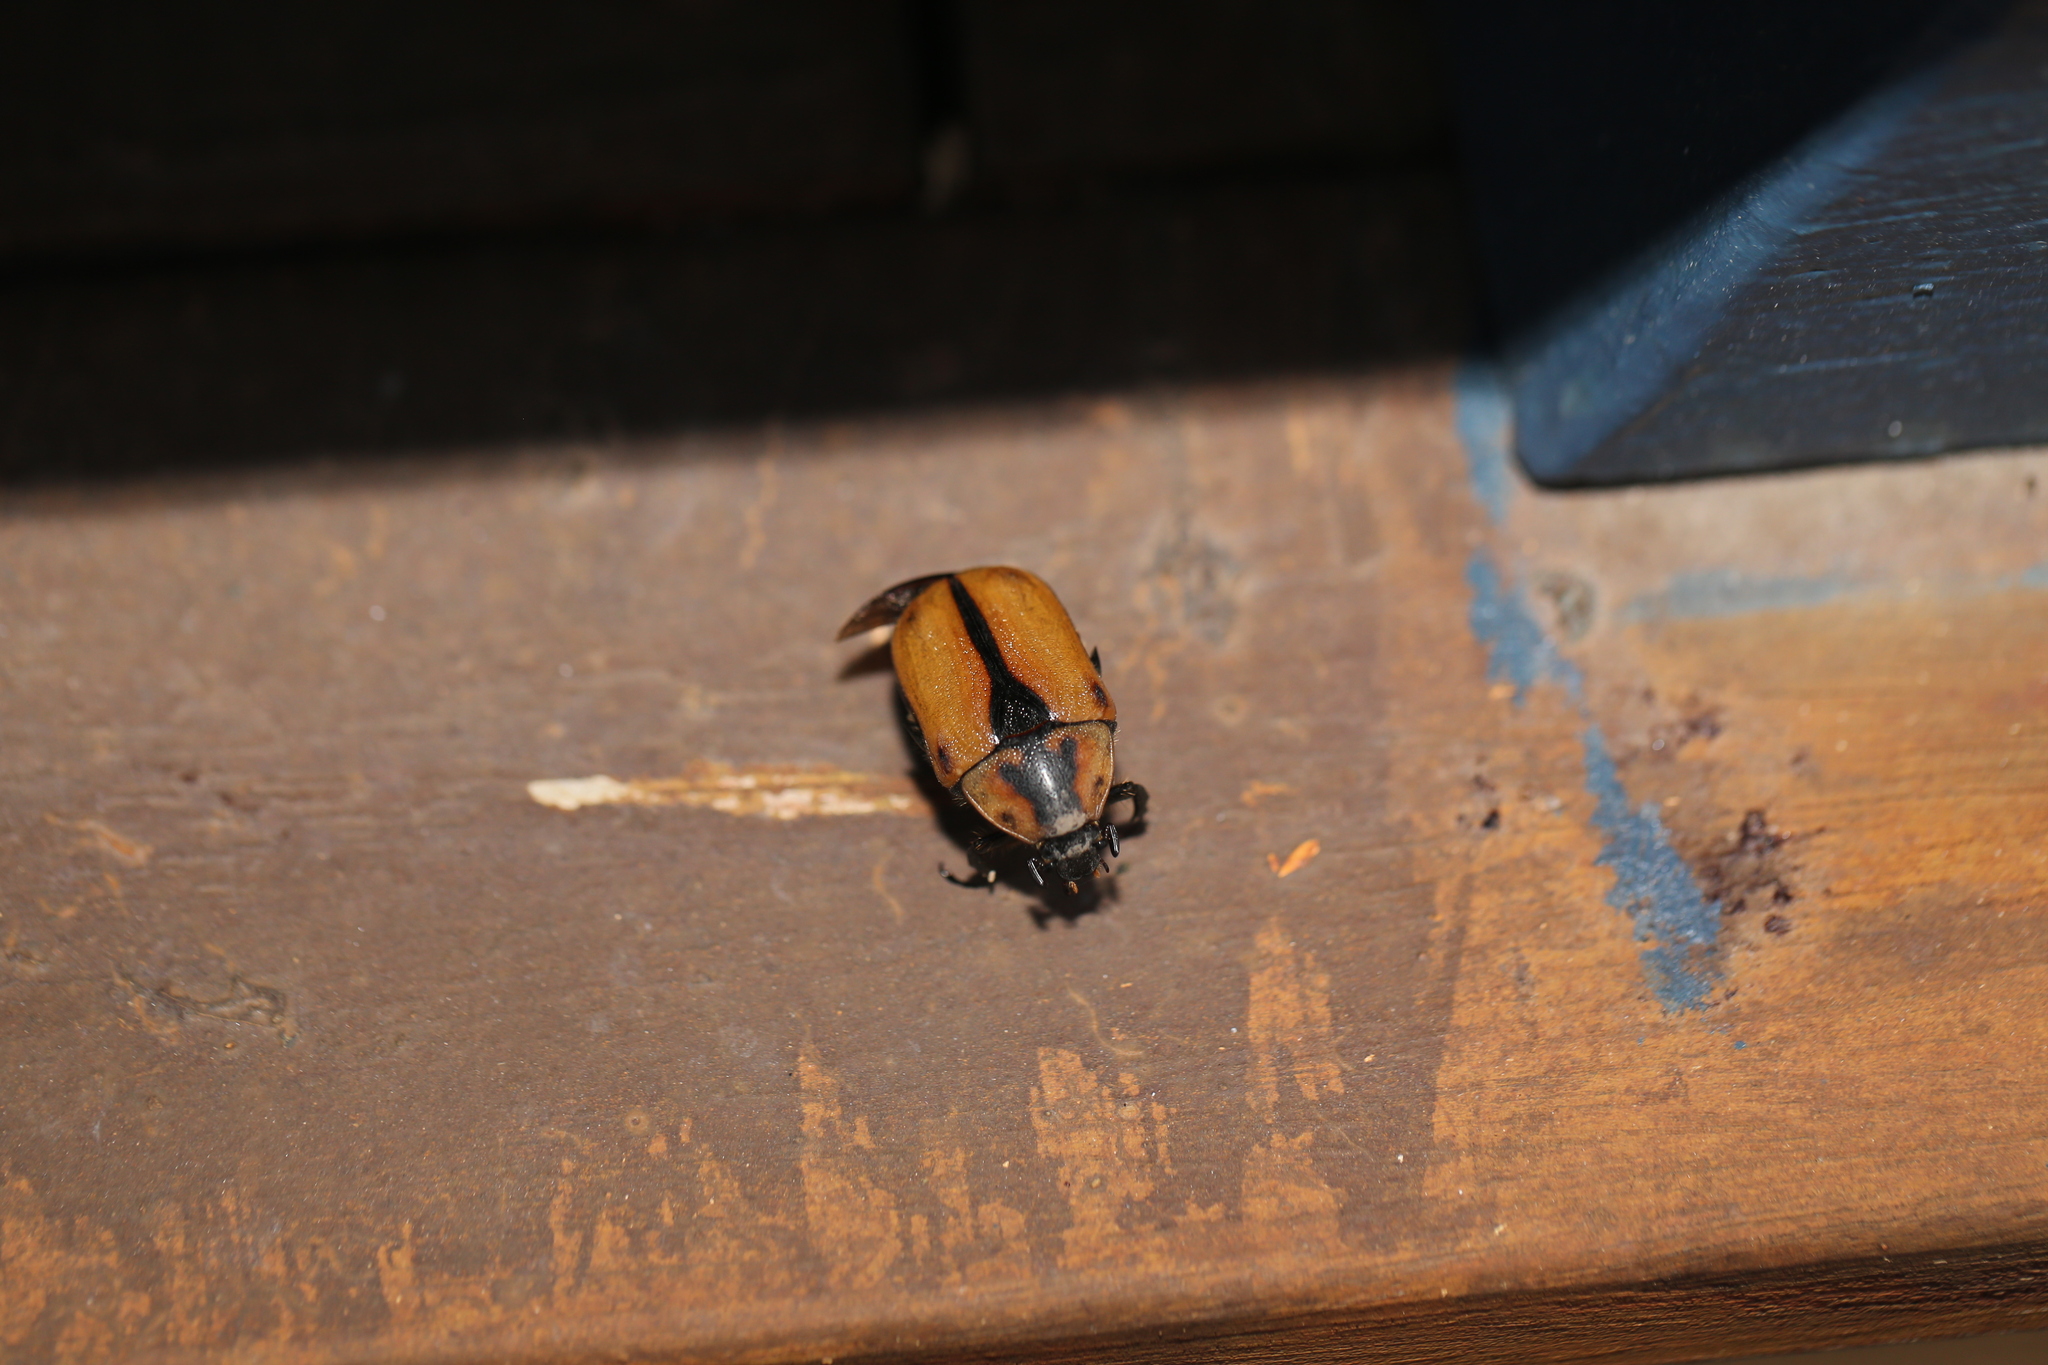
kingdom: Animalia
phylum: Arthropoda
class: Insecta
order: Coleoptera
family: Scarabaeidae
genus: Chondropyga
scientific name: Chondropyga dorsalis
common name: Cowboy beetle
